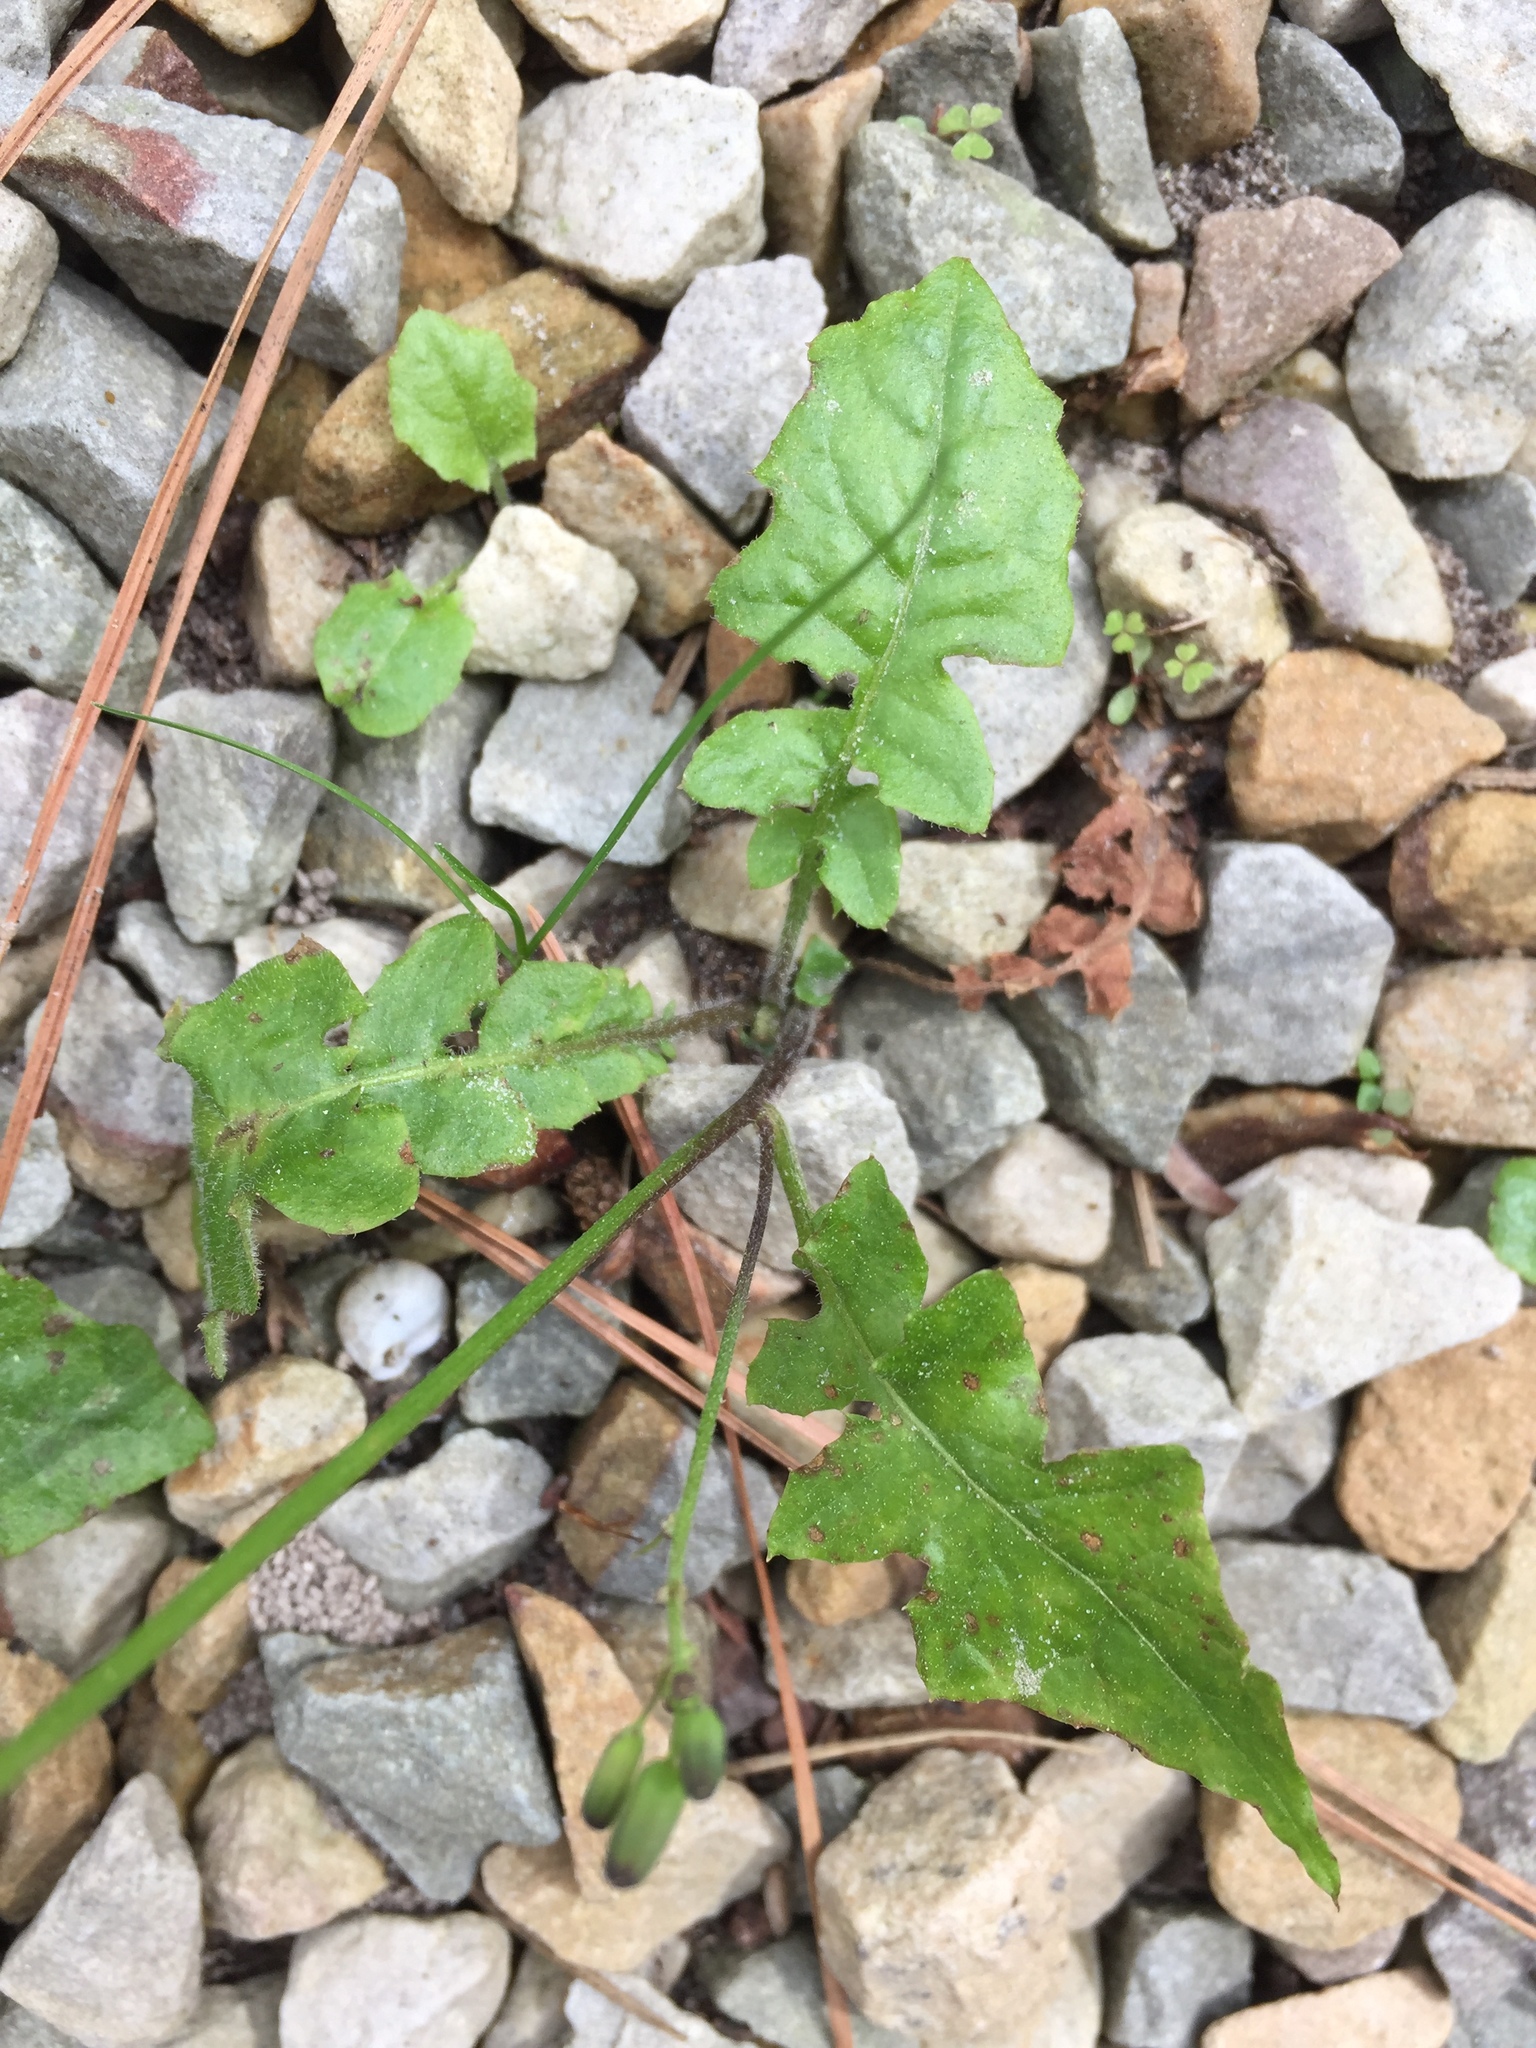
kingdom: Plantae
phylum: Tracheophyta
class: Magnoliopsida
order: Asterales
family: Asteraceae
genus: Youngia
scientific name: Youngia japonica
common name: Oriental false hawksbeard
